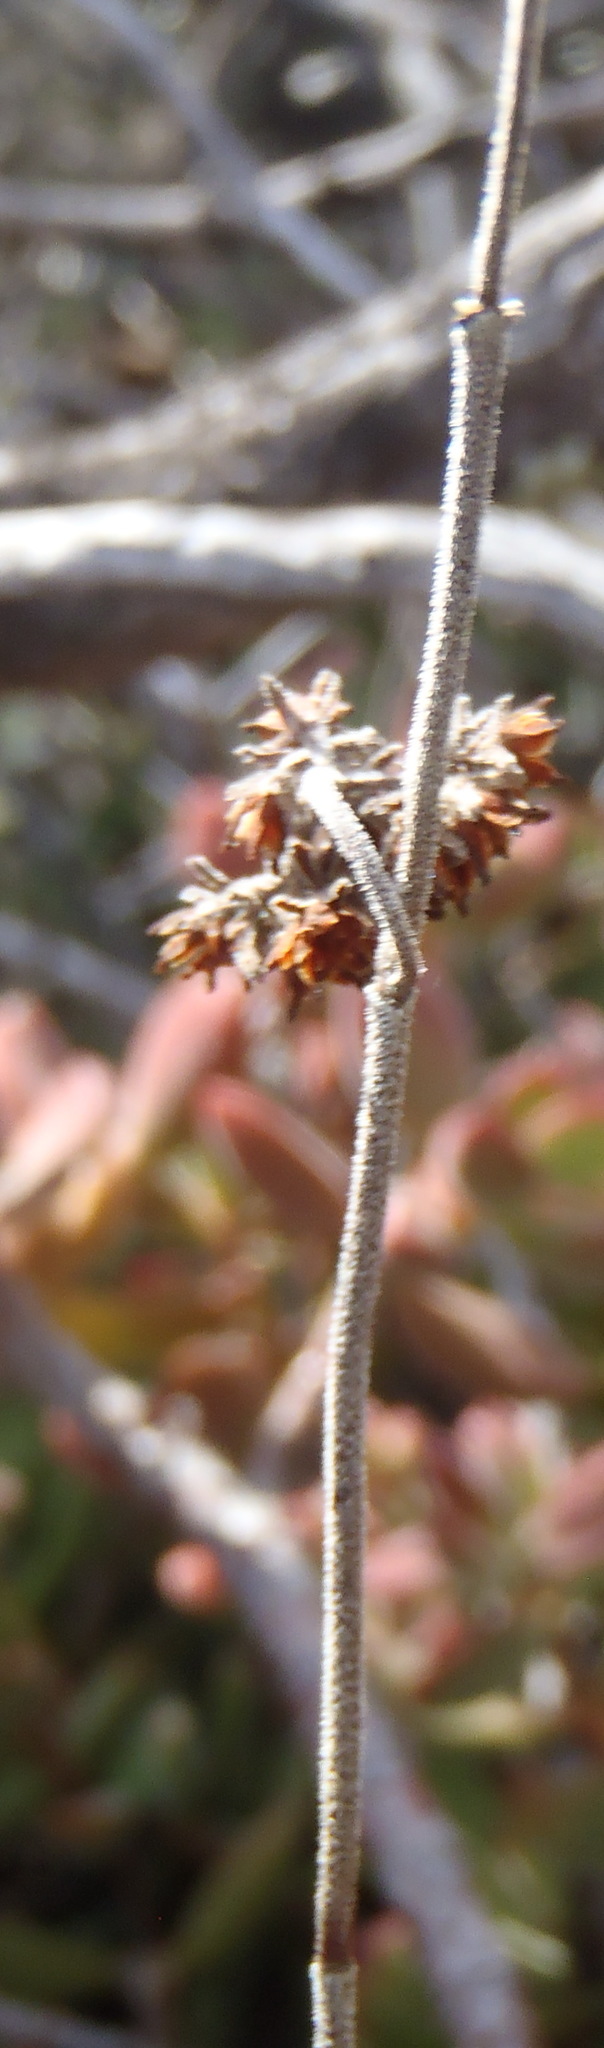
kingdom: Plantae
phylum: Tracheophyta
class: Magnoliopsida
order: Saxifragales
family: Crassulaceae
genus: Crassula
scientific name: Crassula rogersii
